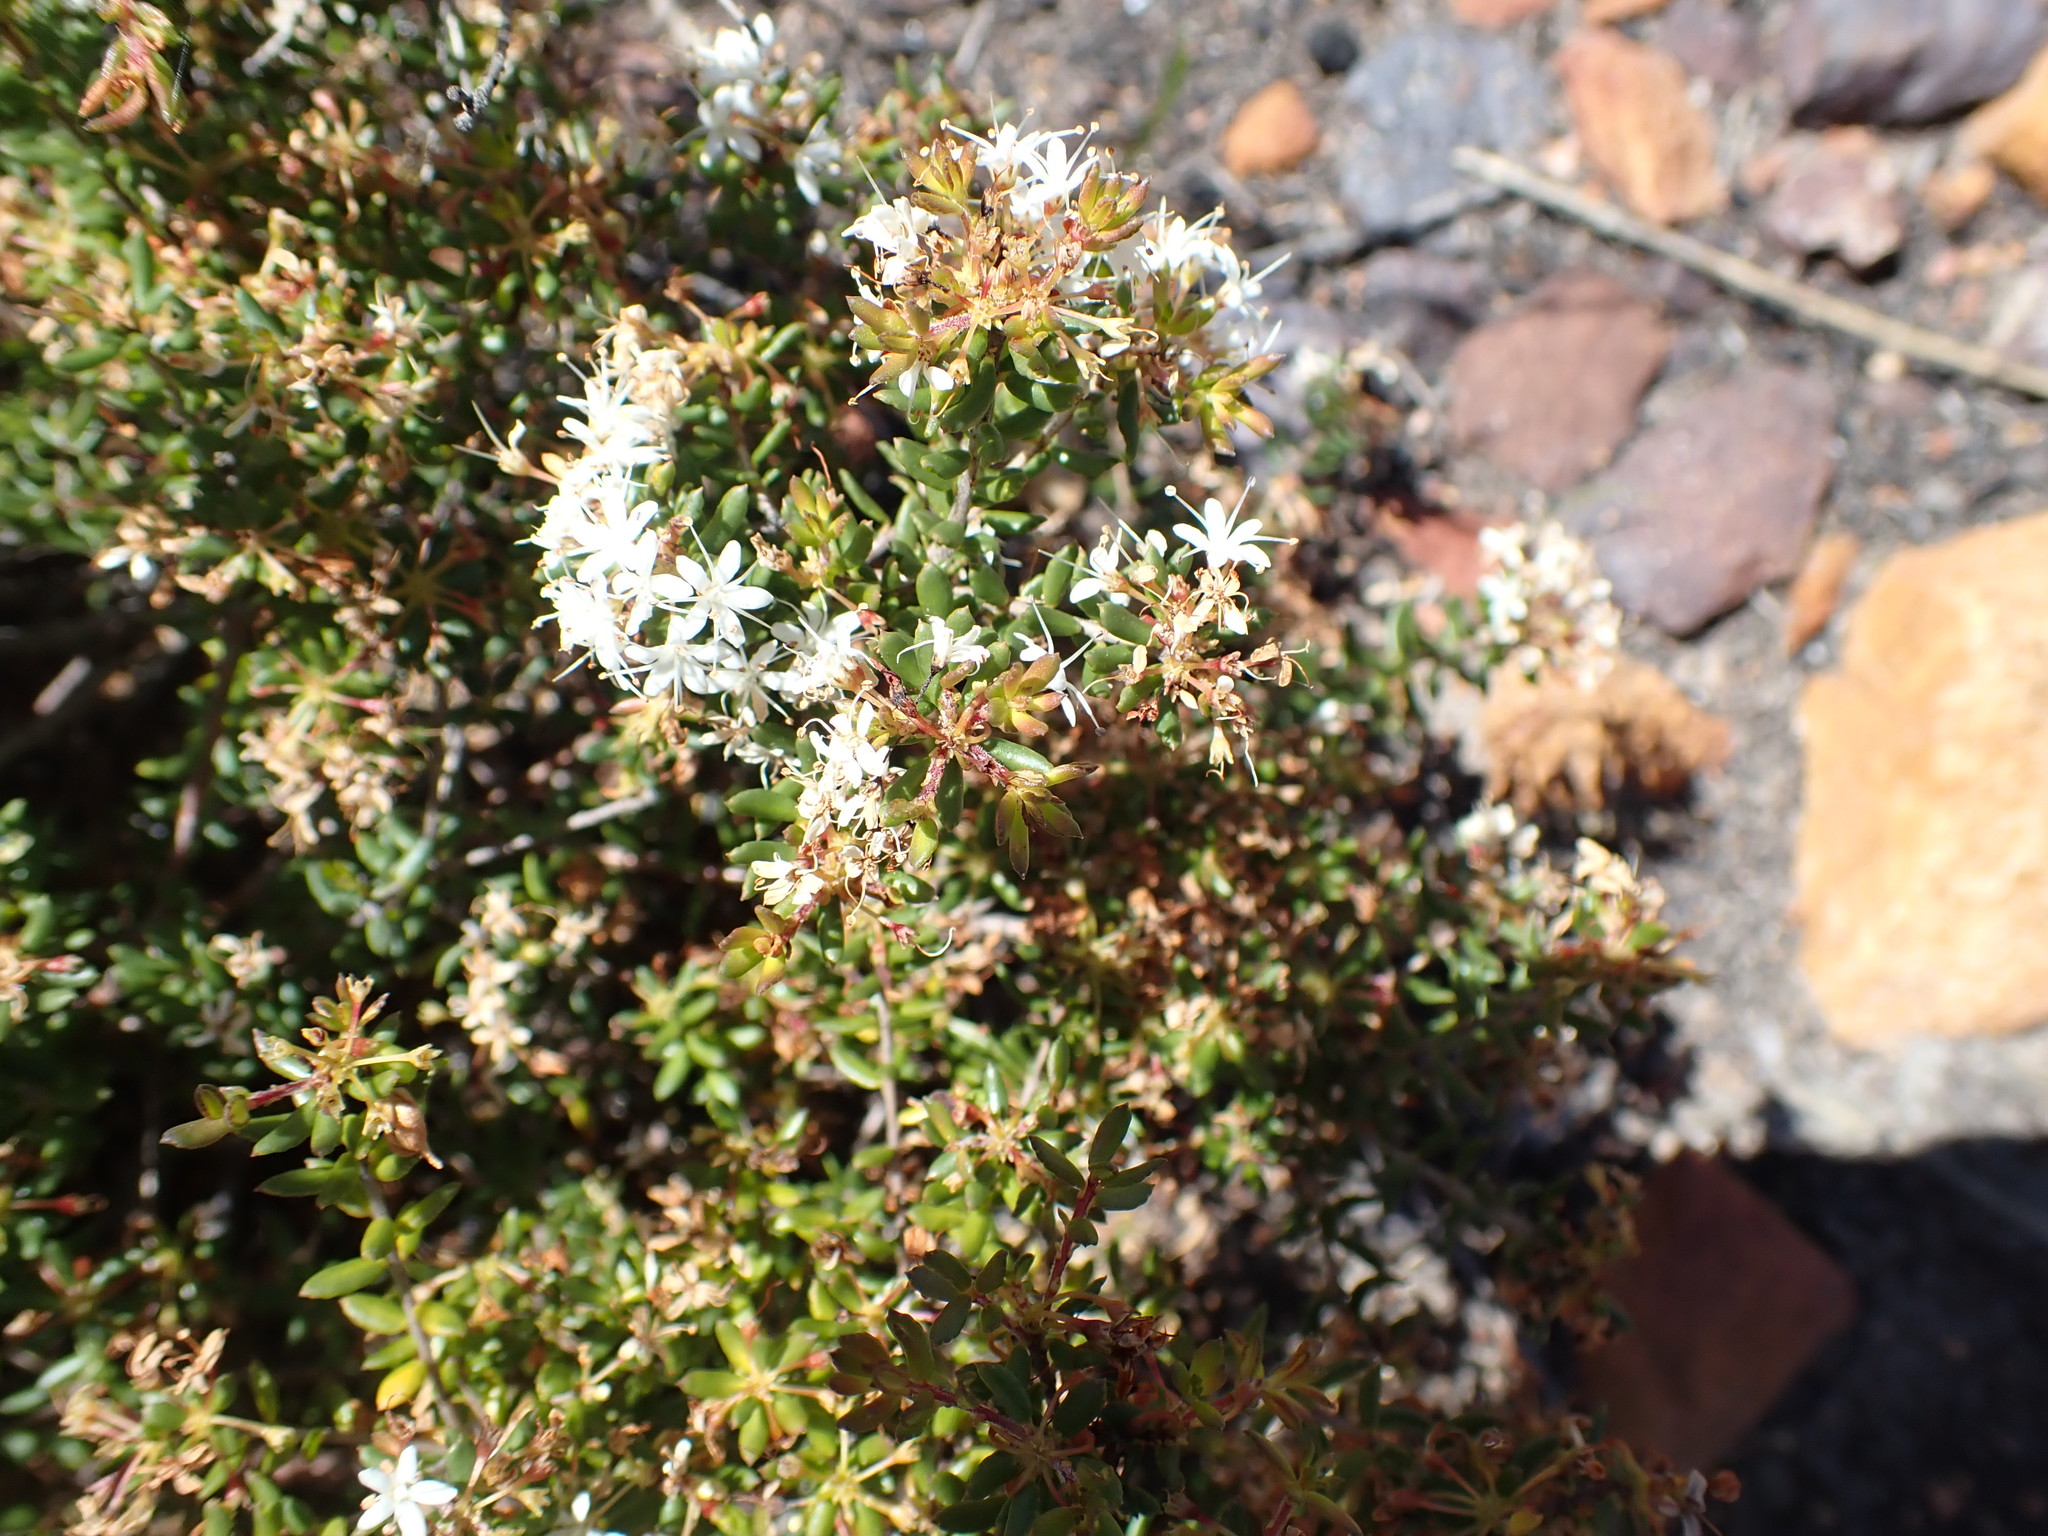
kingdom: Plantae
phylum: Tracheophyta
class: Magnoliopsida
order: Sapindales
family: Rutaceae
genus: Agathosma
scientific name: Agathosma mundtii
